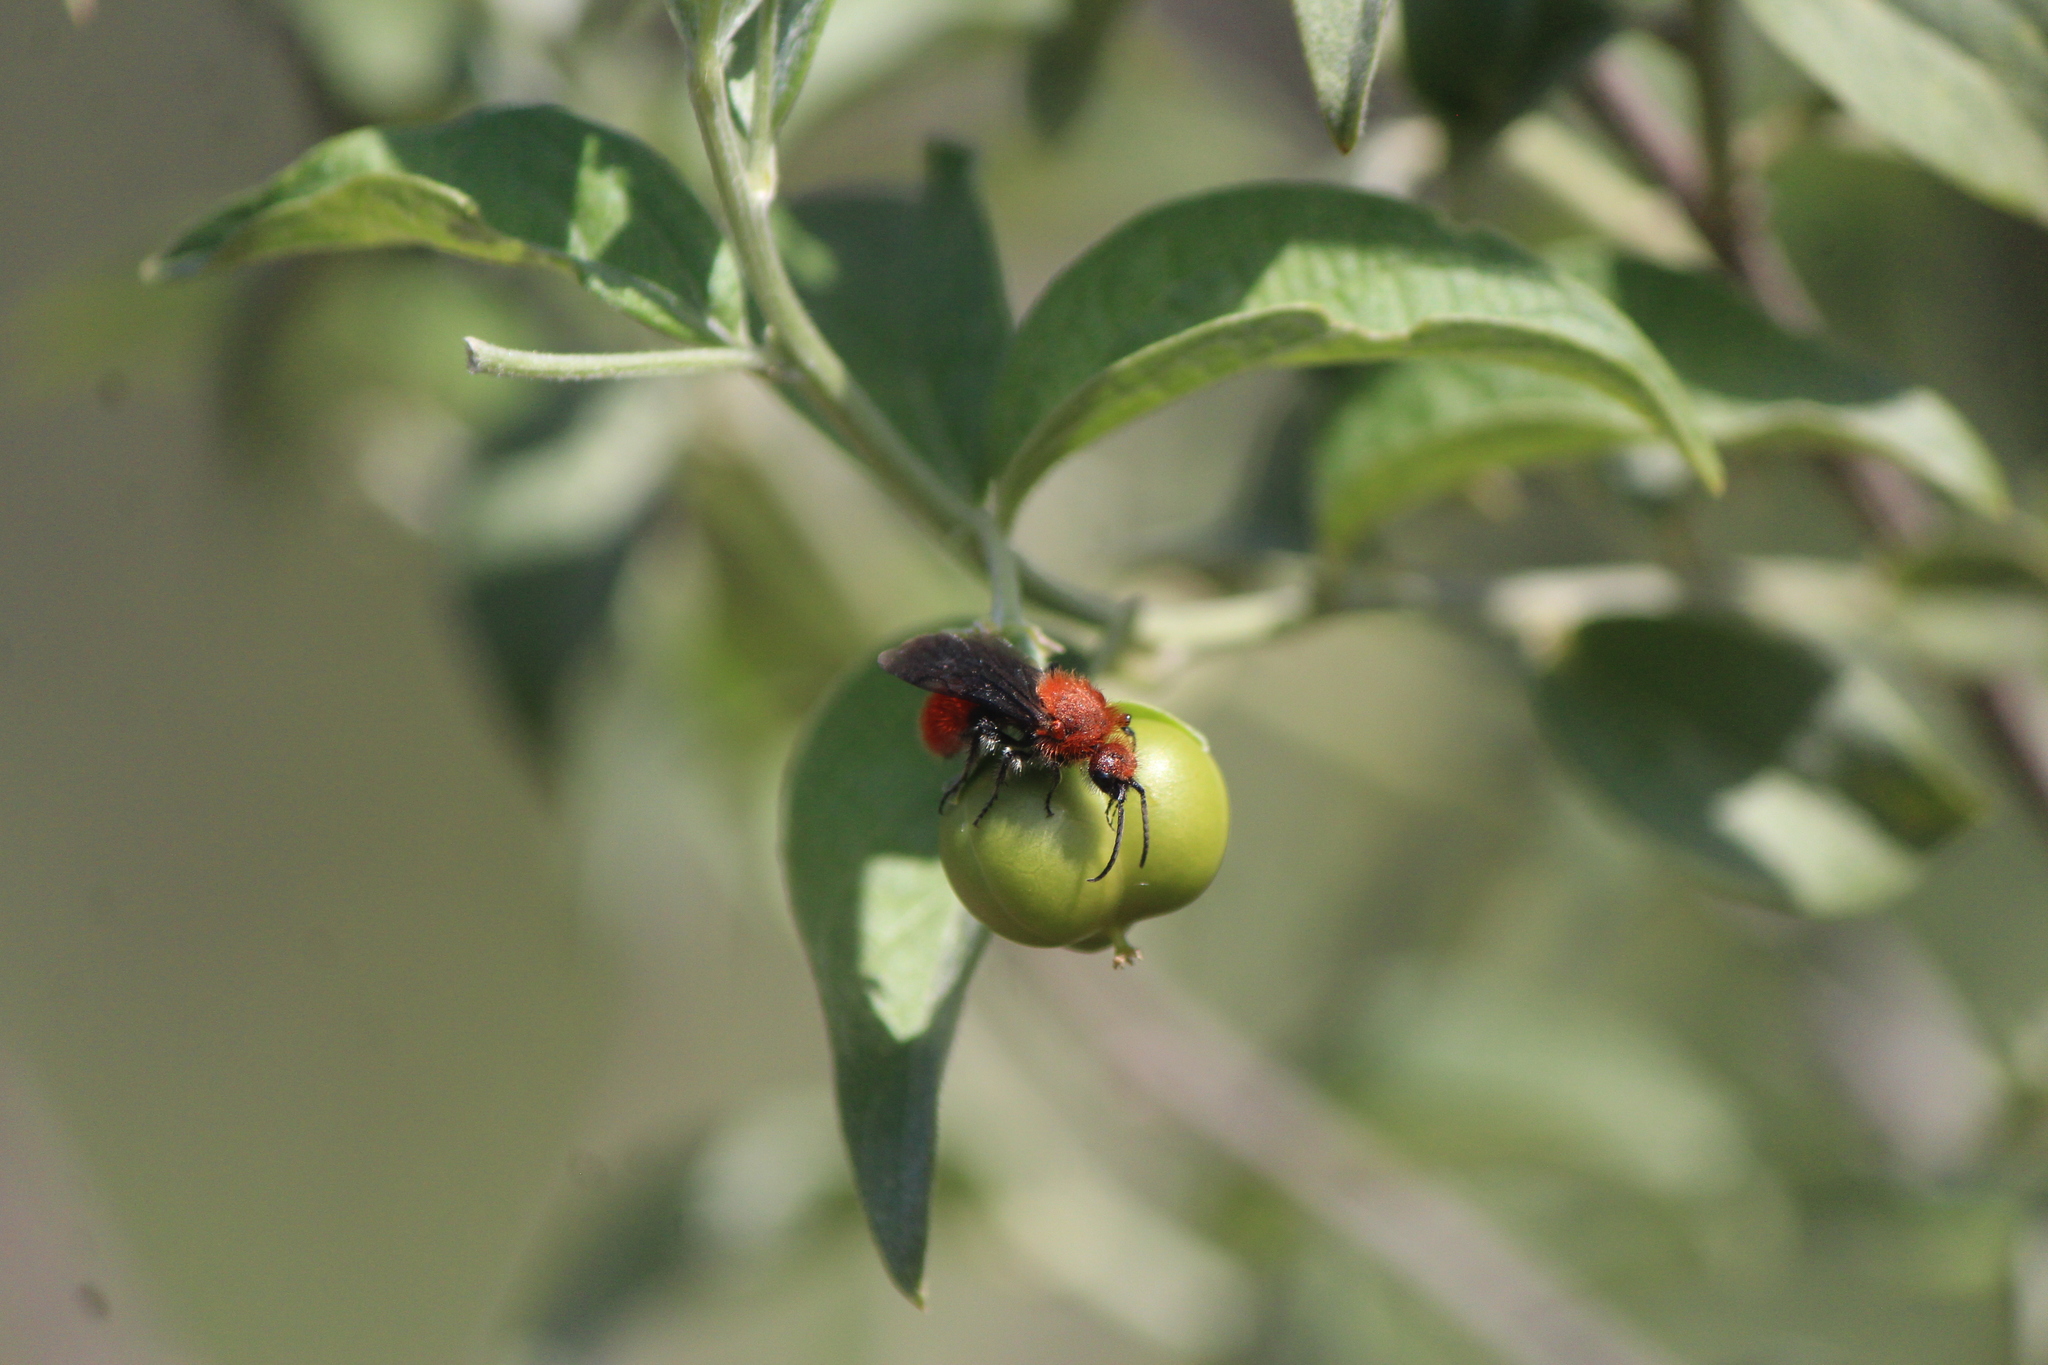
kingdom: Animalia
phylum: Arthropoda
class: Insecta
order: Hymenoptera
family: Mutillidae
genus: Dasymutilla
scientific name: Dasymutilla
